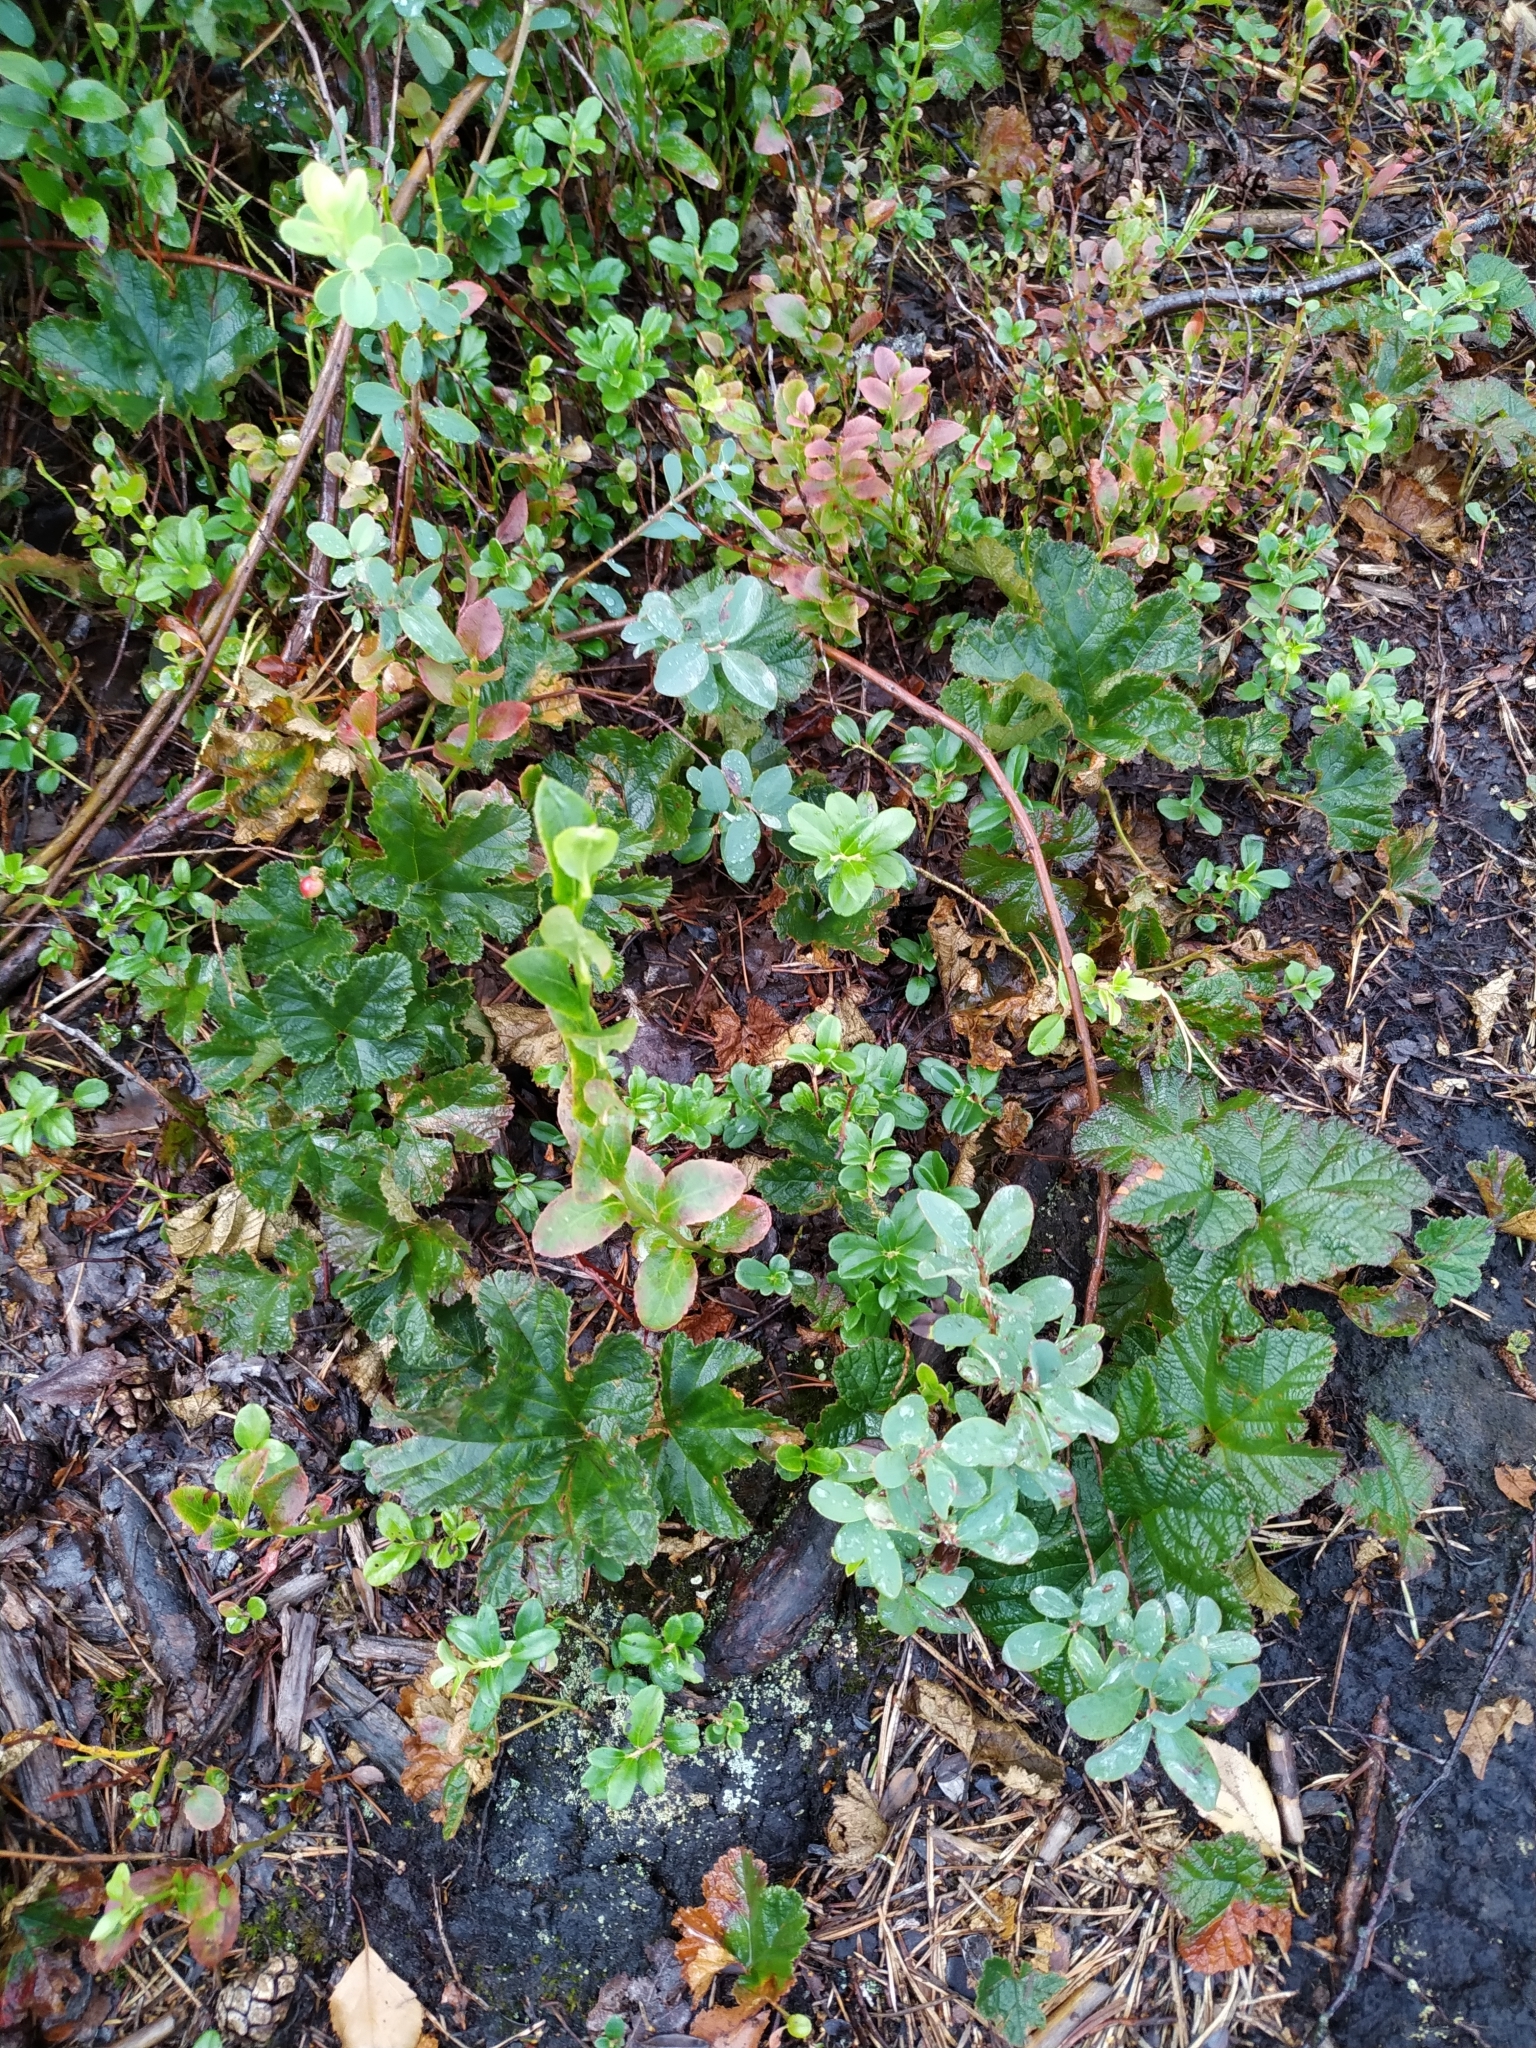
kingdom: Plantae
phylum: Tracheophyta
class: Magnoliopsida
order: Rosales
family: Rosaceae
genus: Rubus
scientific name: Rubus chamaemorus
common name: Cloudberry
